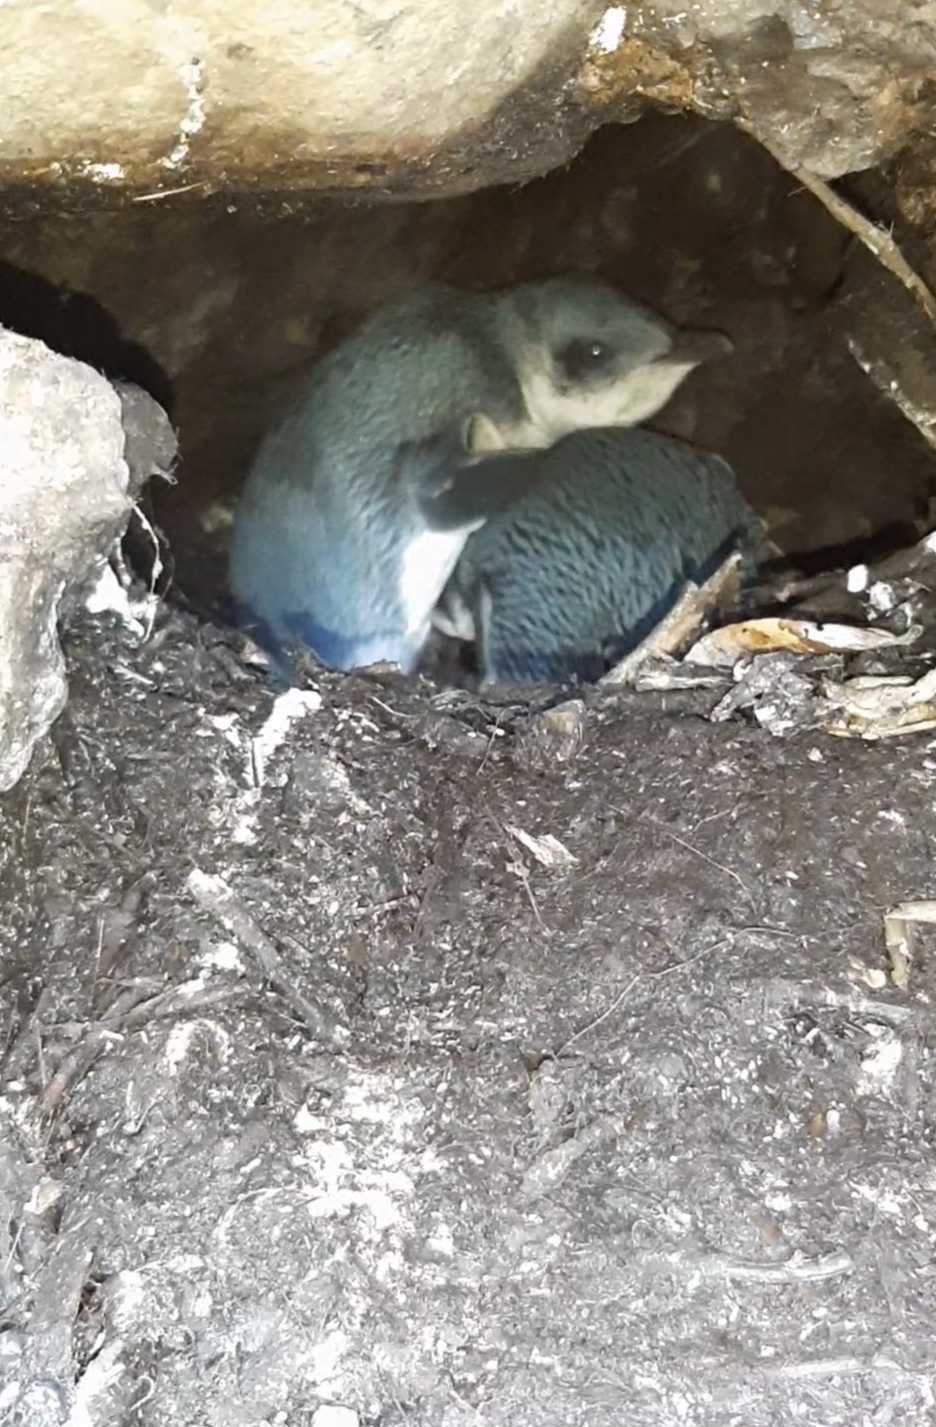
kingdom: Animalia
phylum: Chordata
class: Aves
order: Sphenisciformes
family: Spheniscidae
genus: Eudyptula
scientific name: Eudyptula minor
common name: Little penguin
